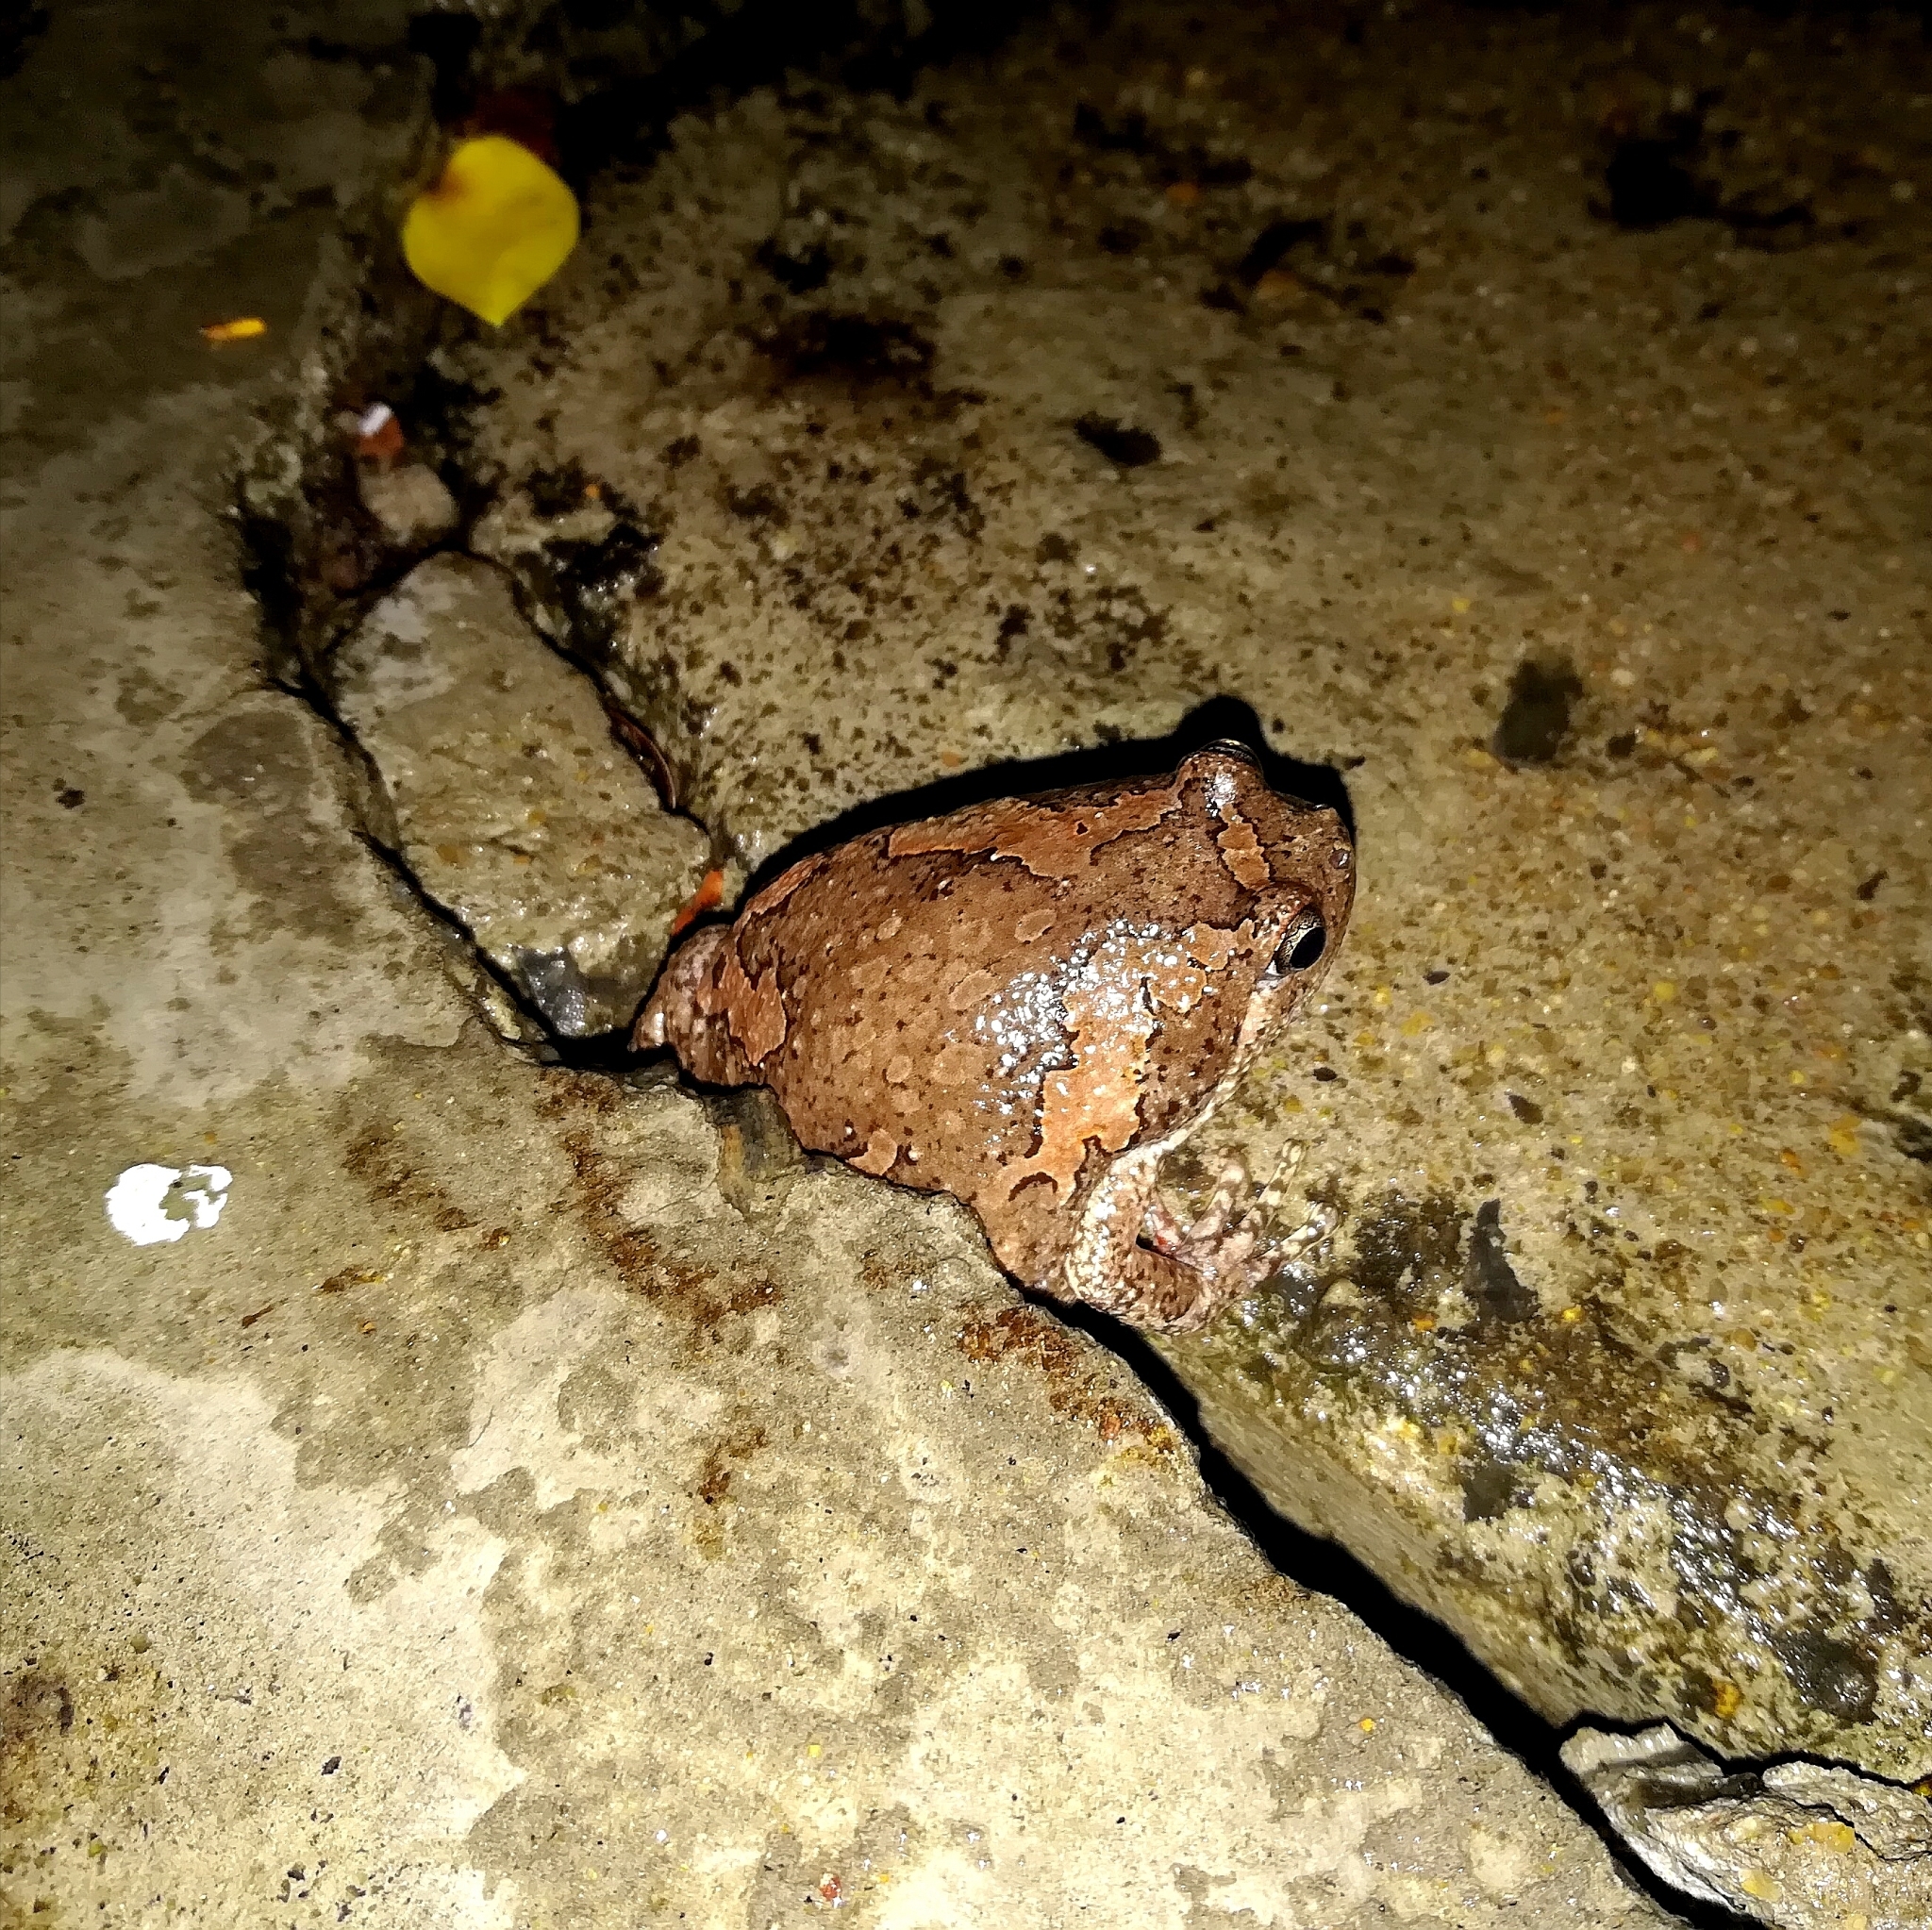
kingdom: Animalia
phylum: Chordata
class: Amphibia
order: Anura
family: Microhylidae
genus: Uperodon
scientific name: Uperodon taprobanicus
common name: Ceylon kaloula
